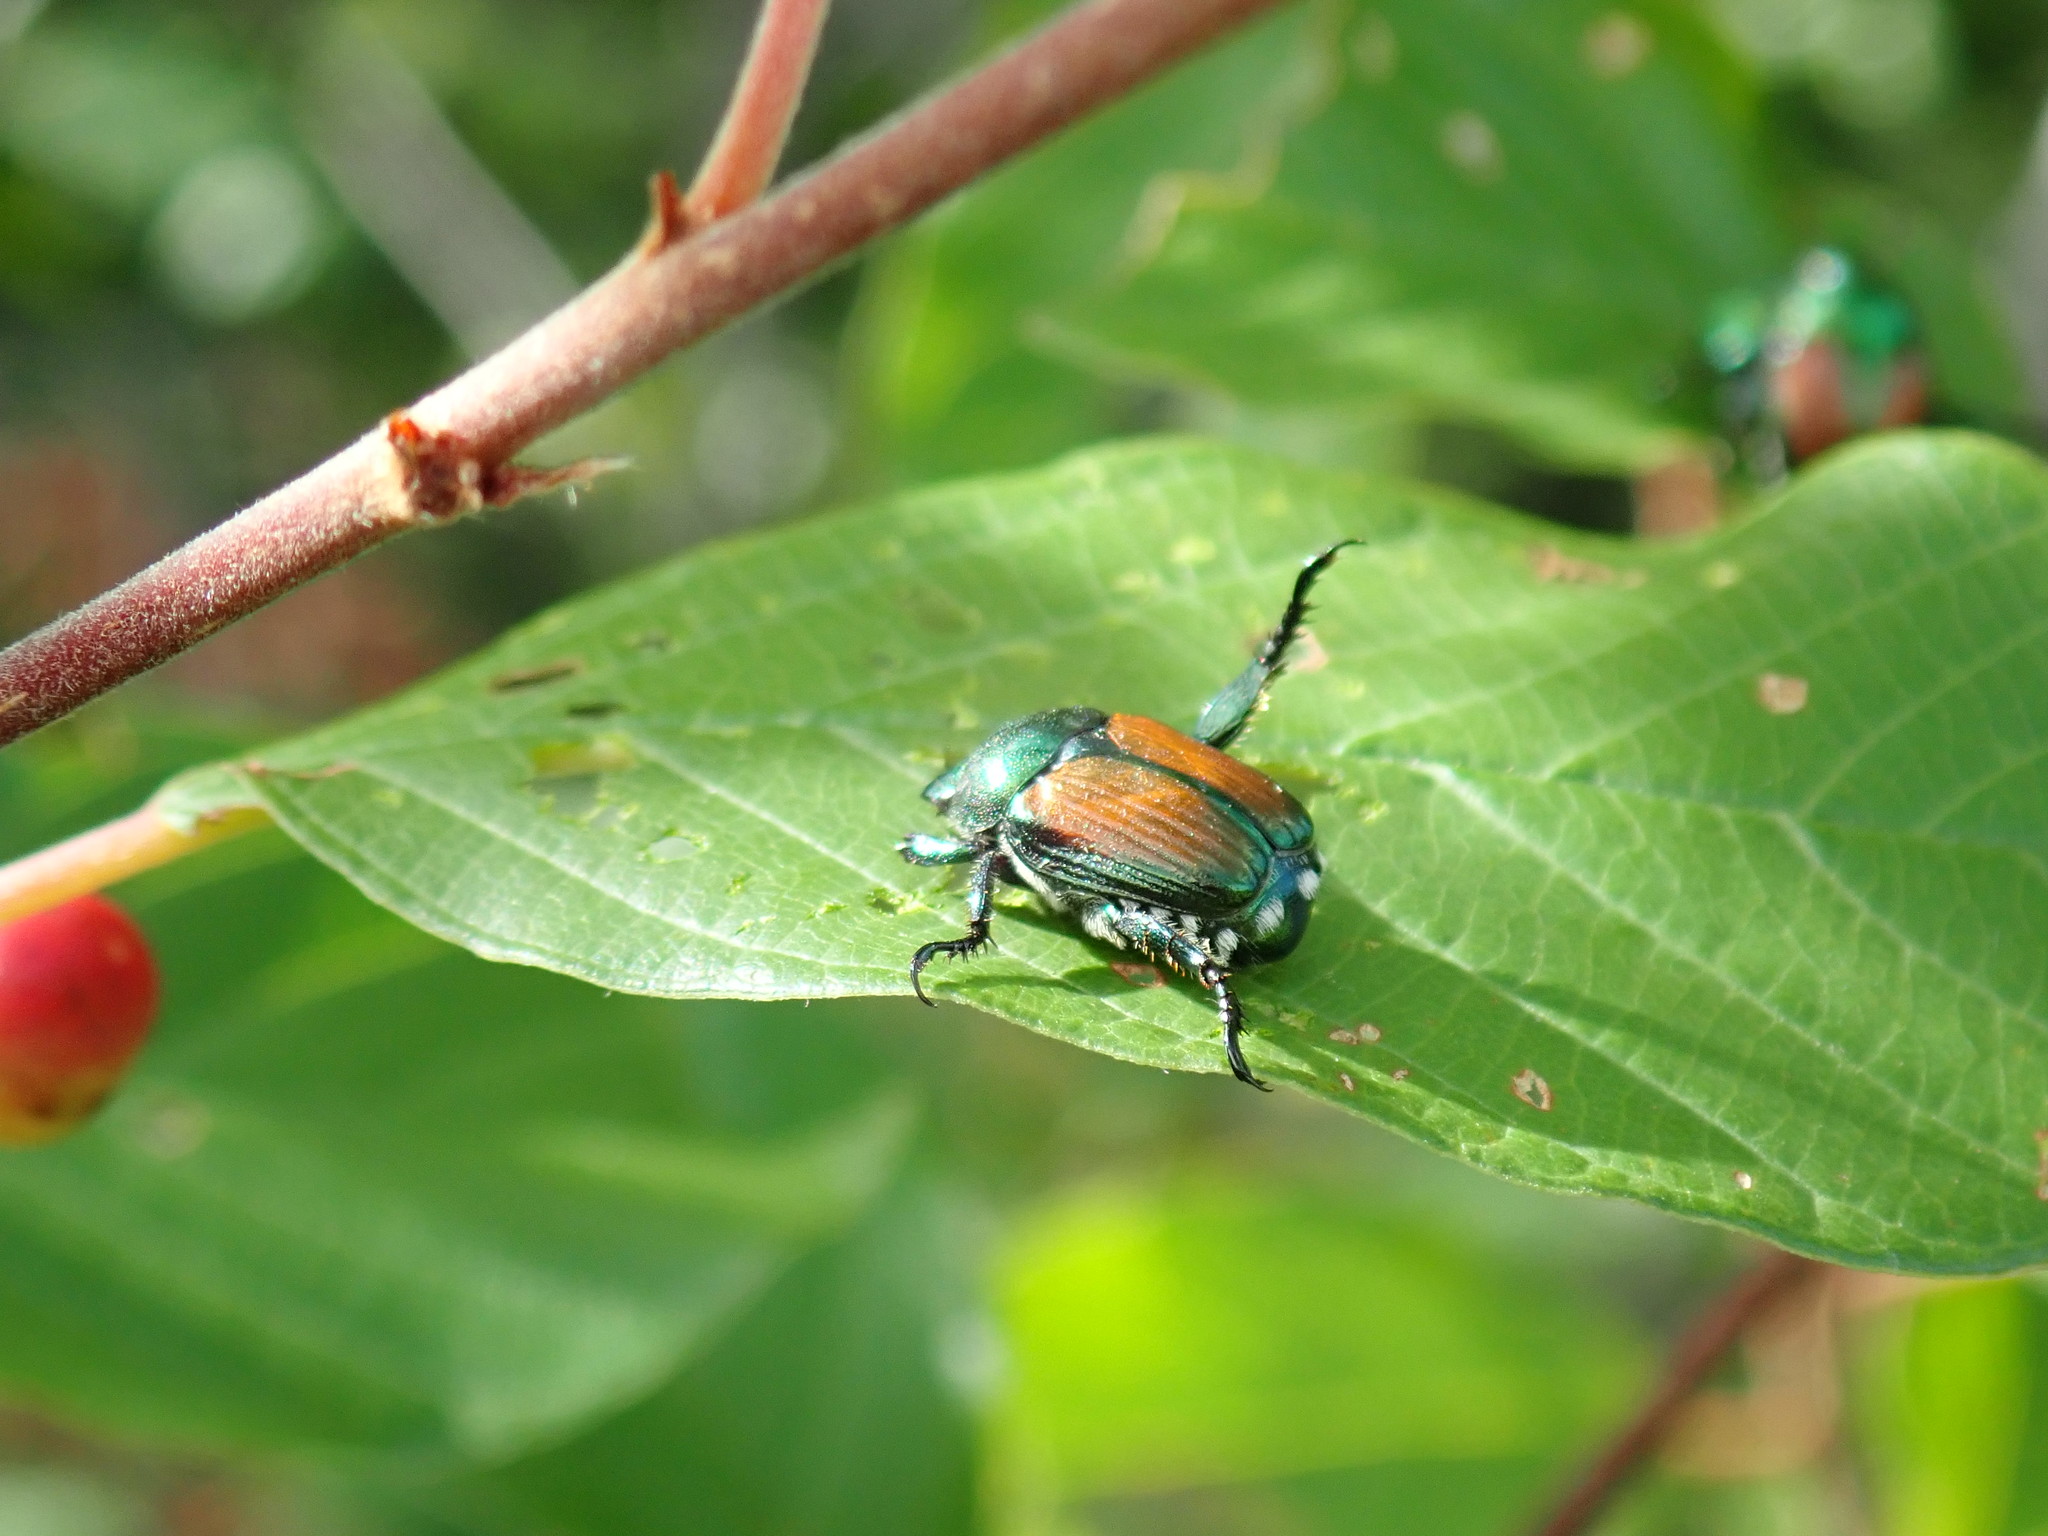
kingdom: Animalia
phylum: Arthropoda
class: Insecta
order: Coleoptera
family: Scarabaeidae
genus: Popillia
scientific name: Popillia japonica
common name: Japanese beetle
